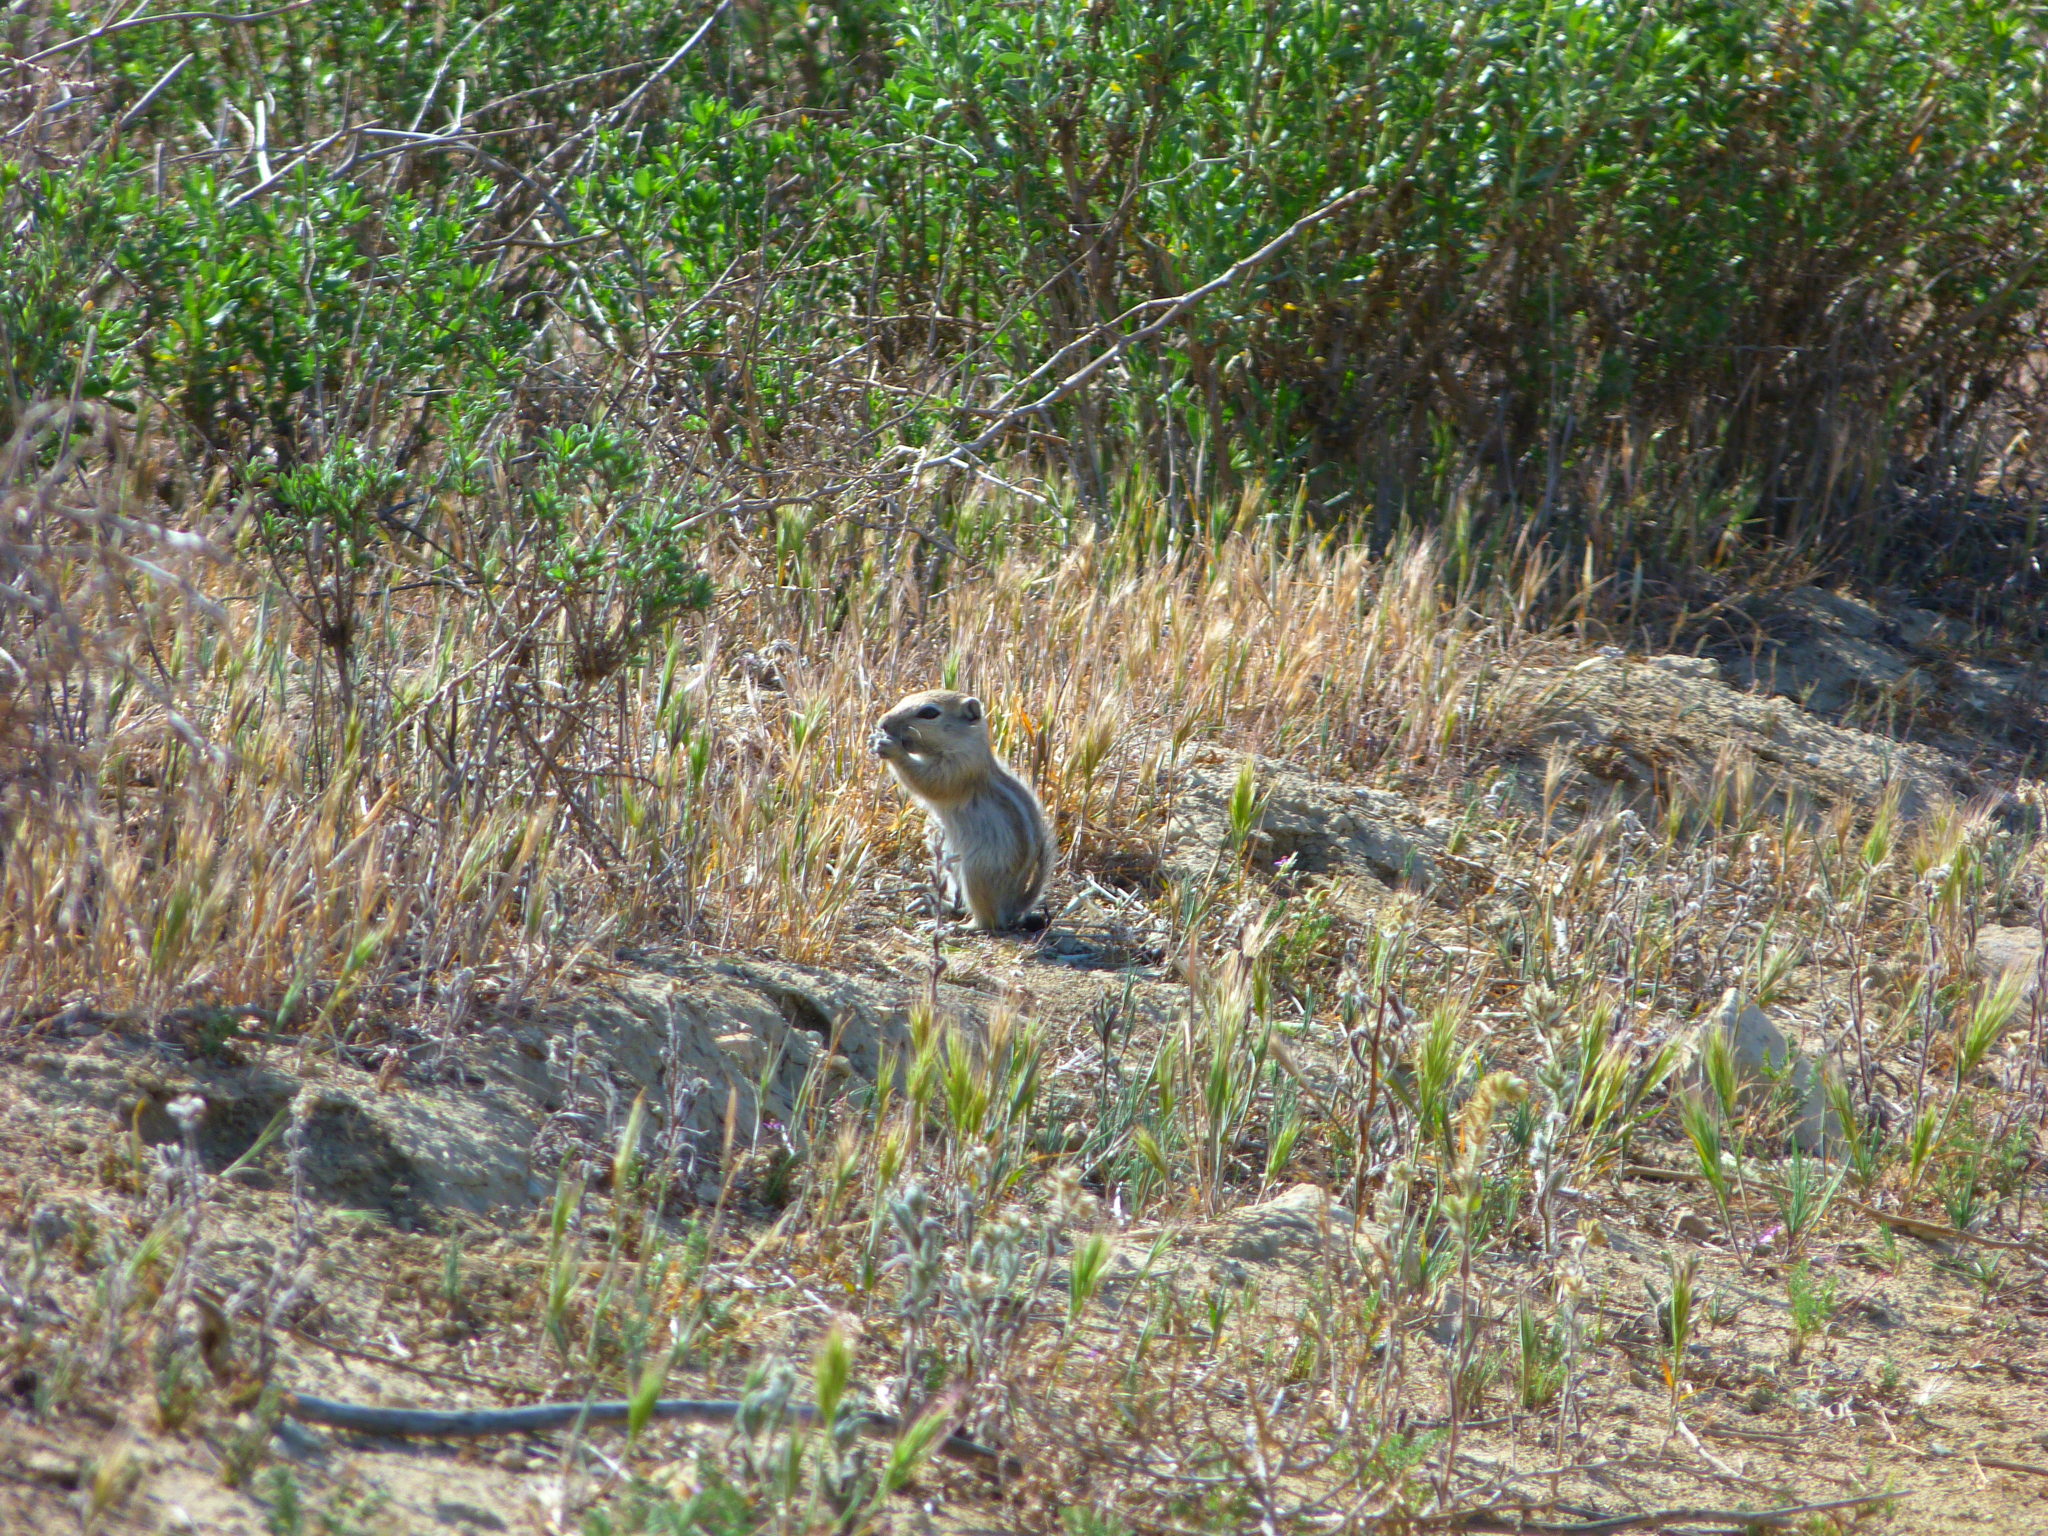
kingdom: Animalia
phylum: Chordata
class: Mammalia
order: Rodentia
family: Sciuridae
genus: Ammospermophilus
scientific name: Ammospermophilus nelsoni
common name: Nelson's antelope squirrel
